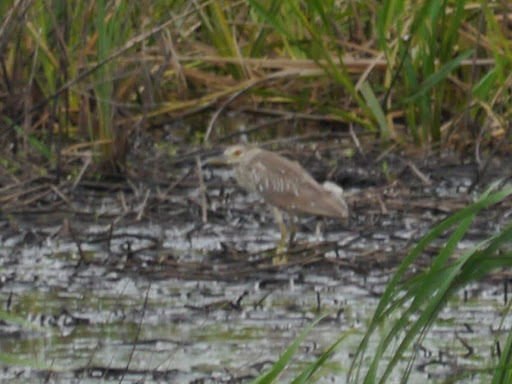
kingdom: Animalia
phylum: Chordata
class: Aves
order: Pelecaniformes
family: Ardeidae
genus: Nycticorax
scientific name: Nycticorax nycticorax
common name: Black-crowned night heron
